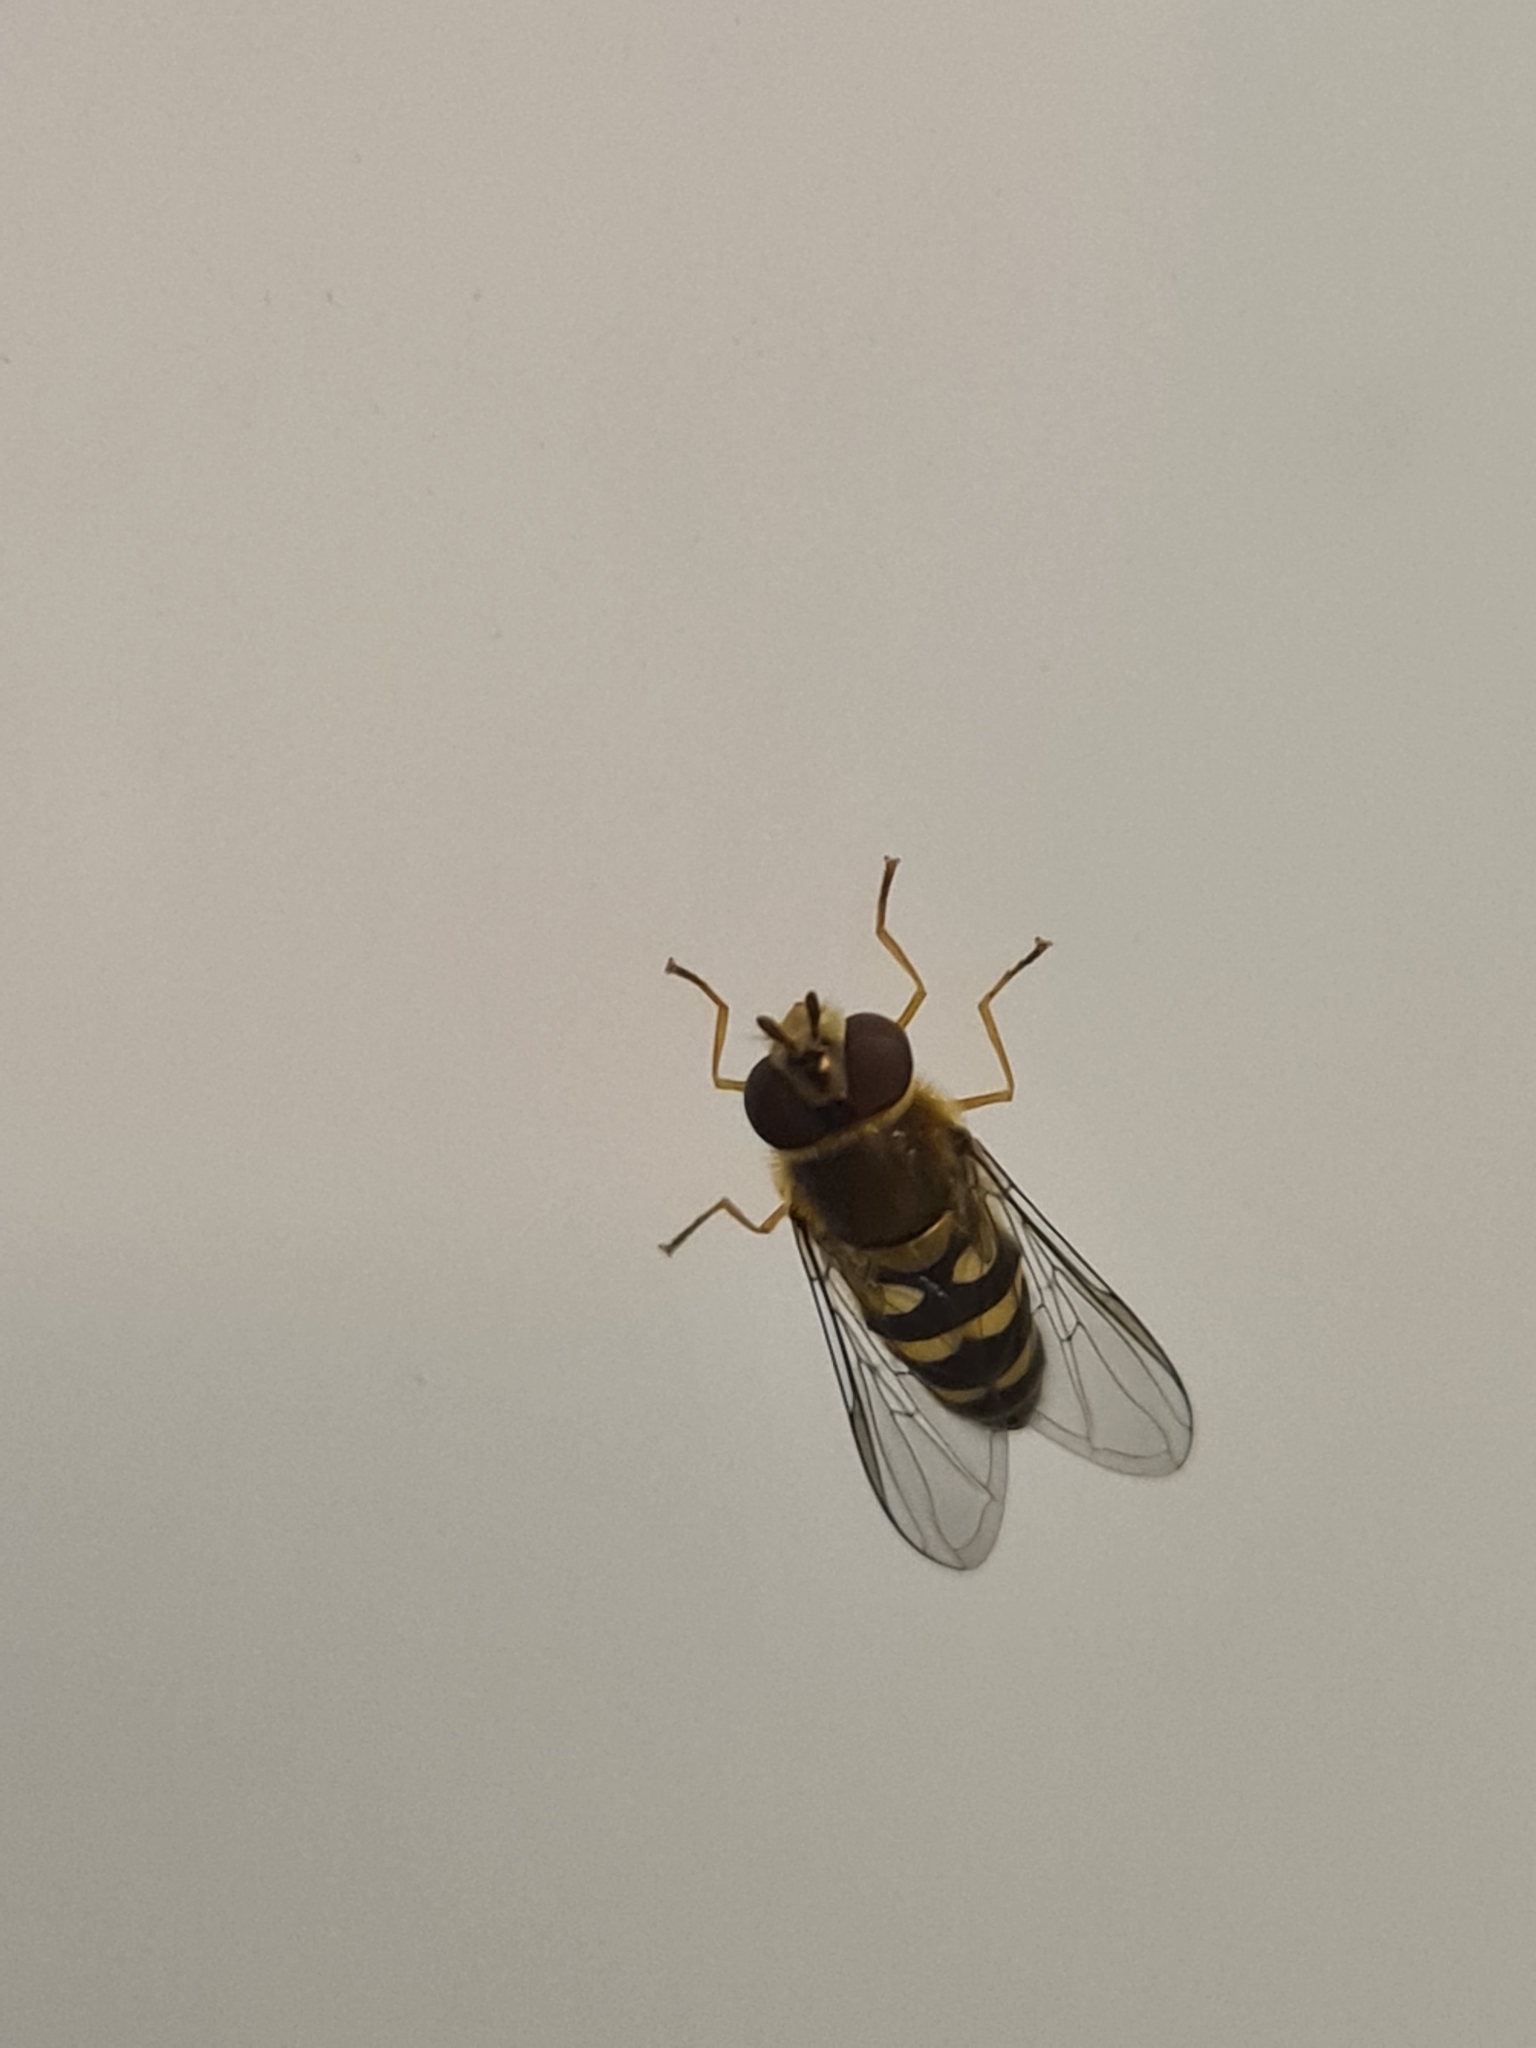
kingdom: Animalia
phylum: Arthropoda
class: Insecta
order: Diptera
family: Syrphidae
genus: Syrphus
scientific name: Syrphus
